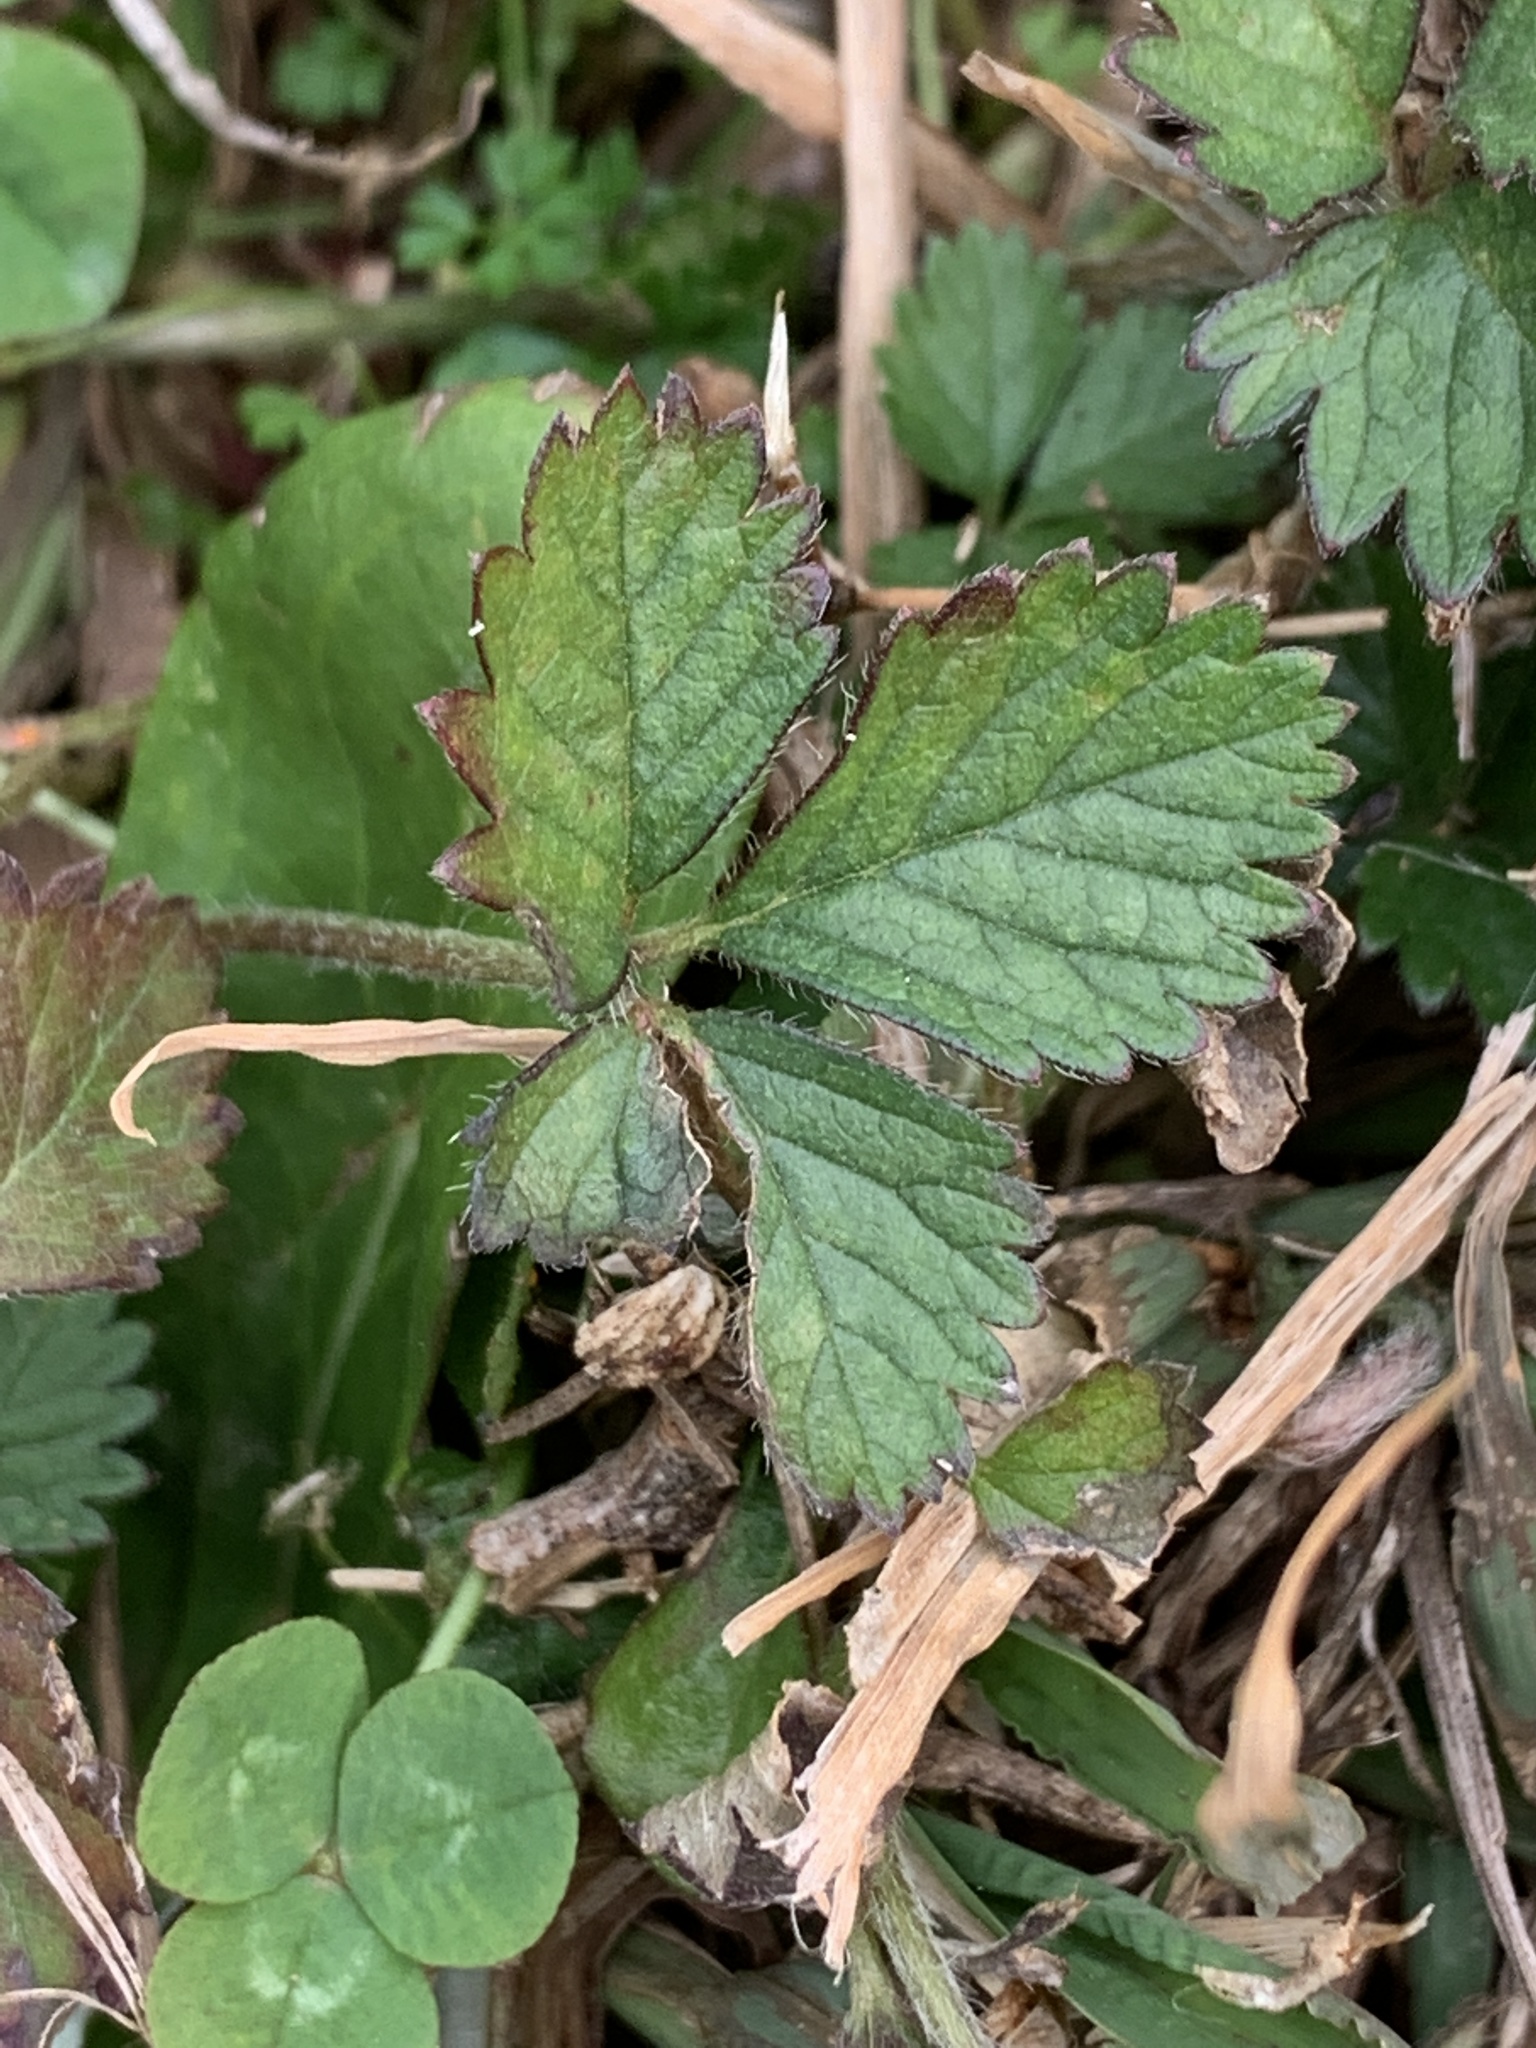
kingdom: Plantae
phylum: Tracheophyta
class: Magnoliopsida
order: Rosales
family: Rosaceae
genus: Potentilla
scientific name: Potentilla indica
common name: Yellow-flowered strawberry
